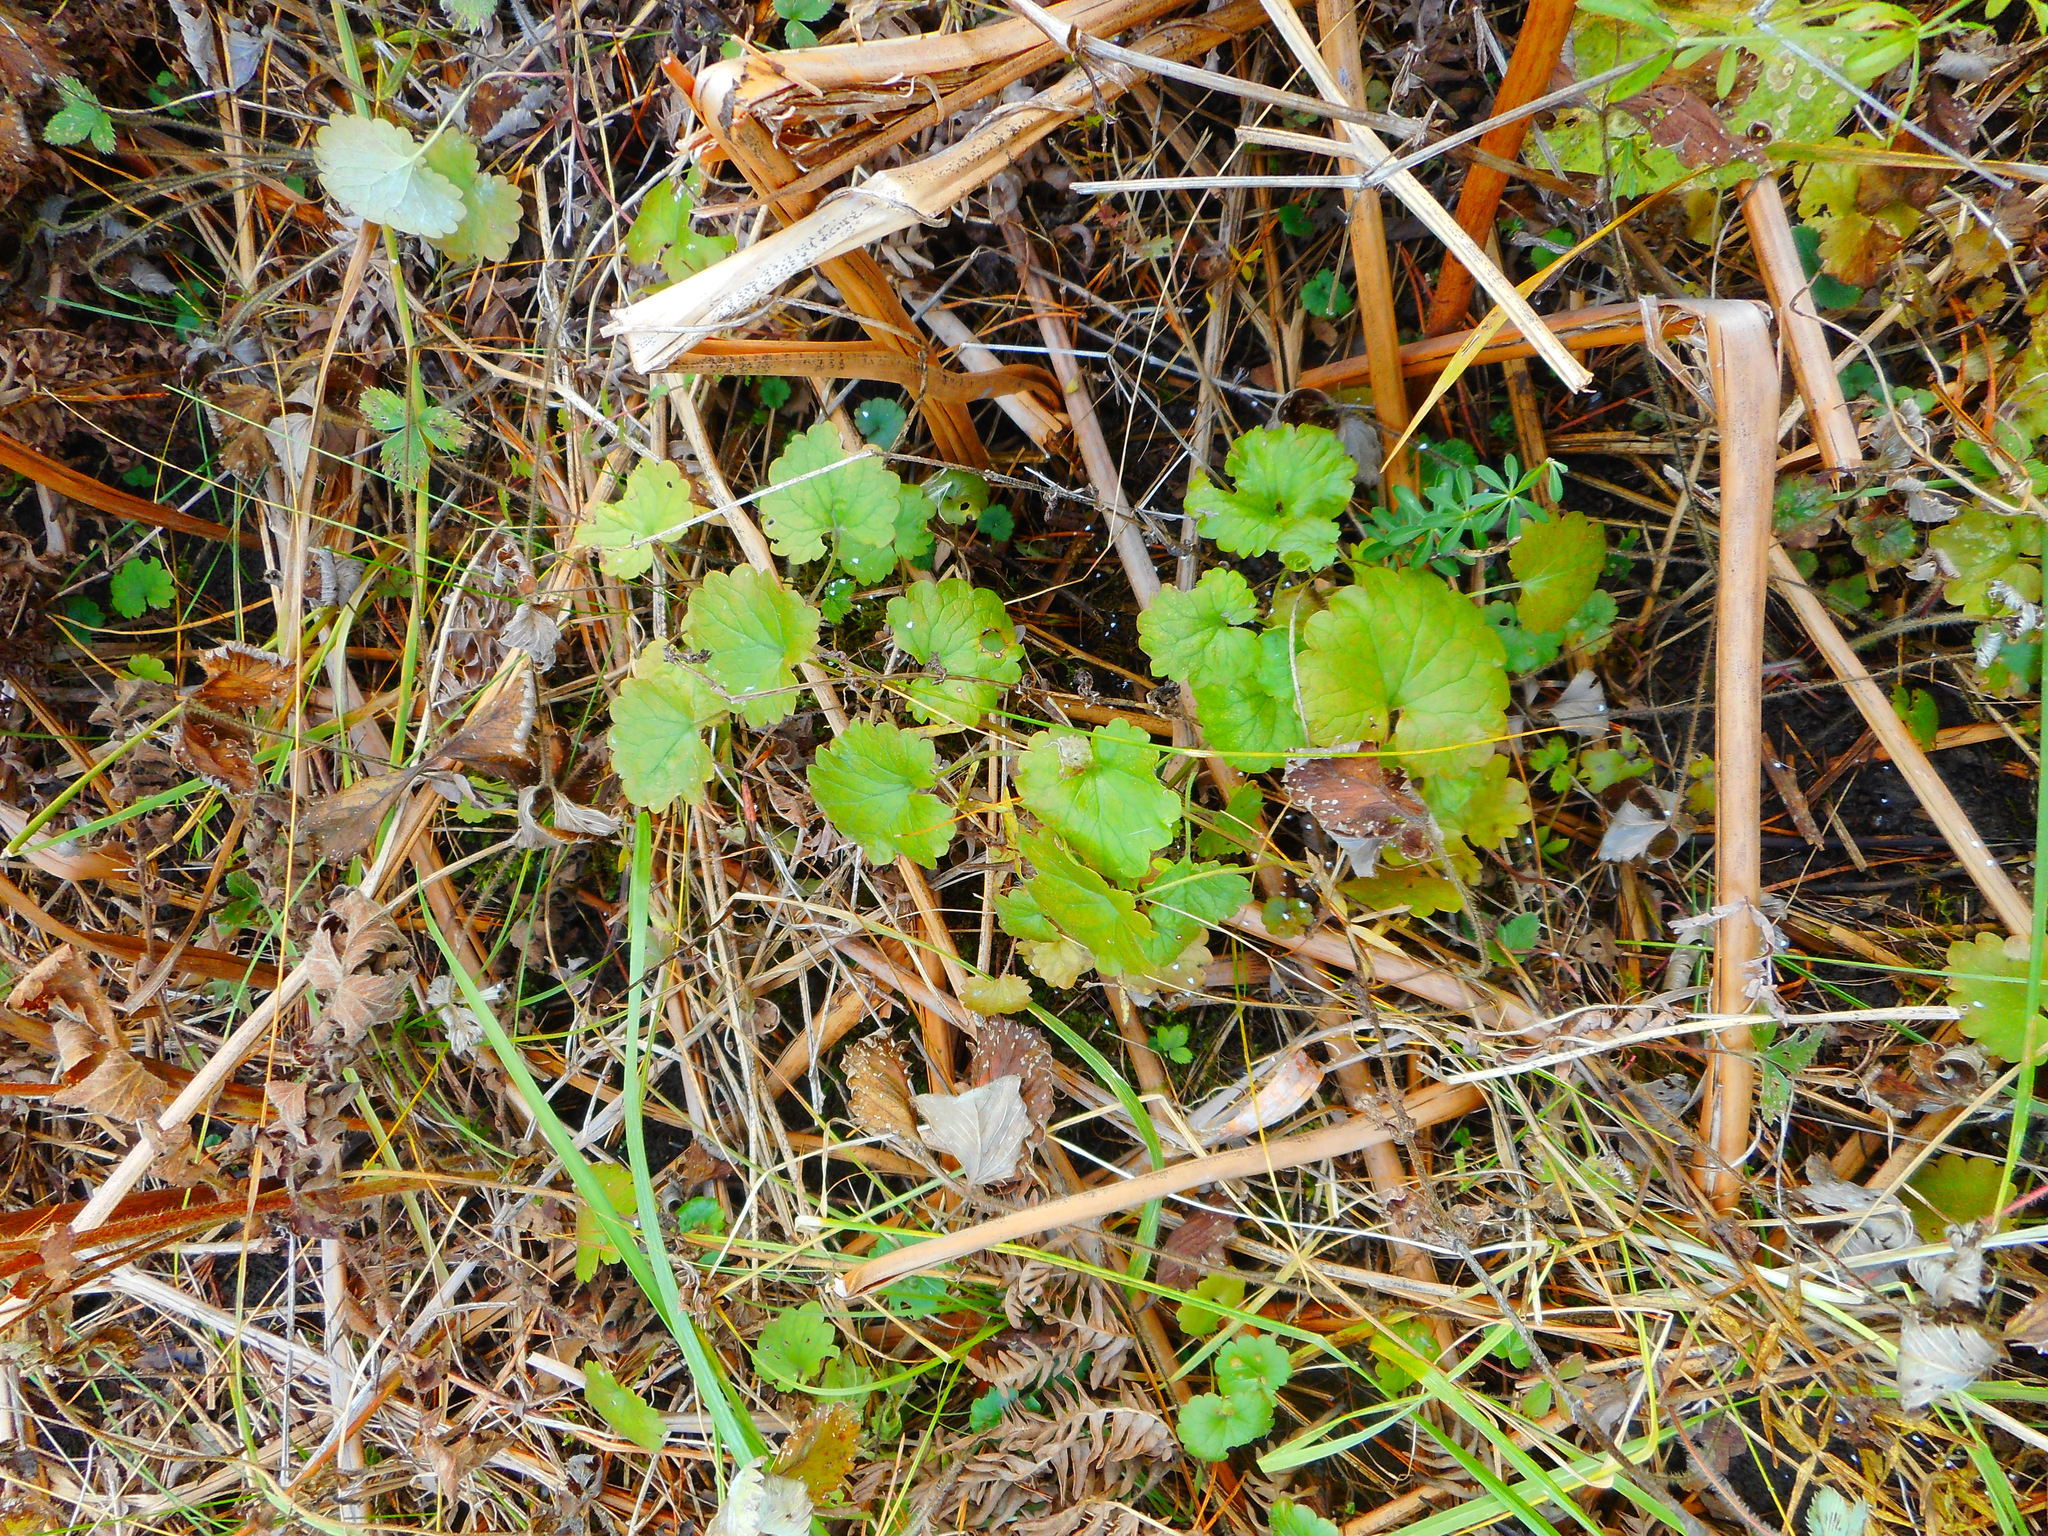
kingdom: Plantae
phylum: Tracheophyta
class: Magnoliopsida
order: Lamiales
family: Lamiaceae
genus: Glechoma
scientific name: Glechoma hederacea
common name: Ground ivy
